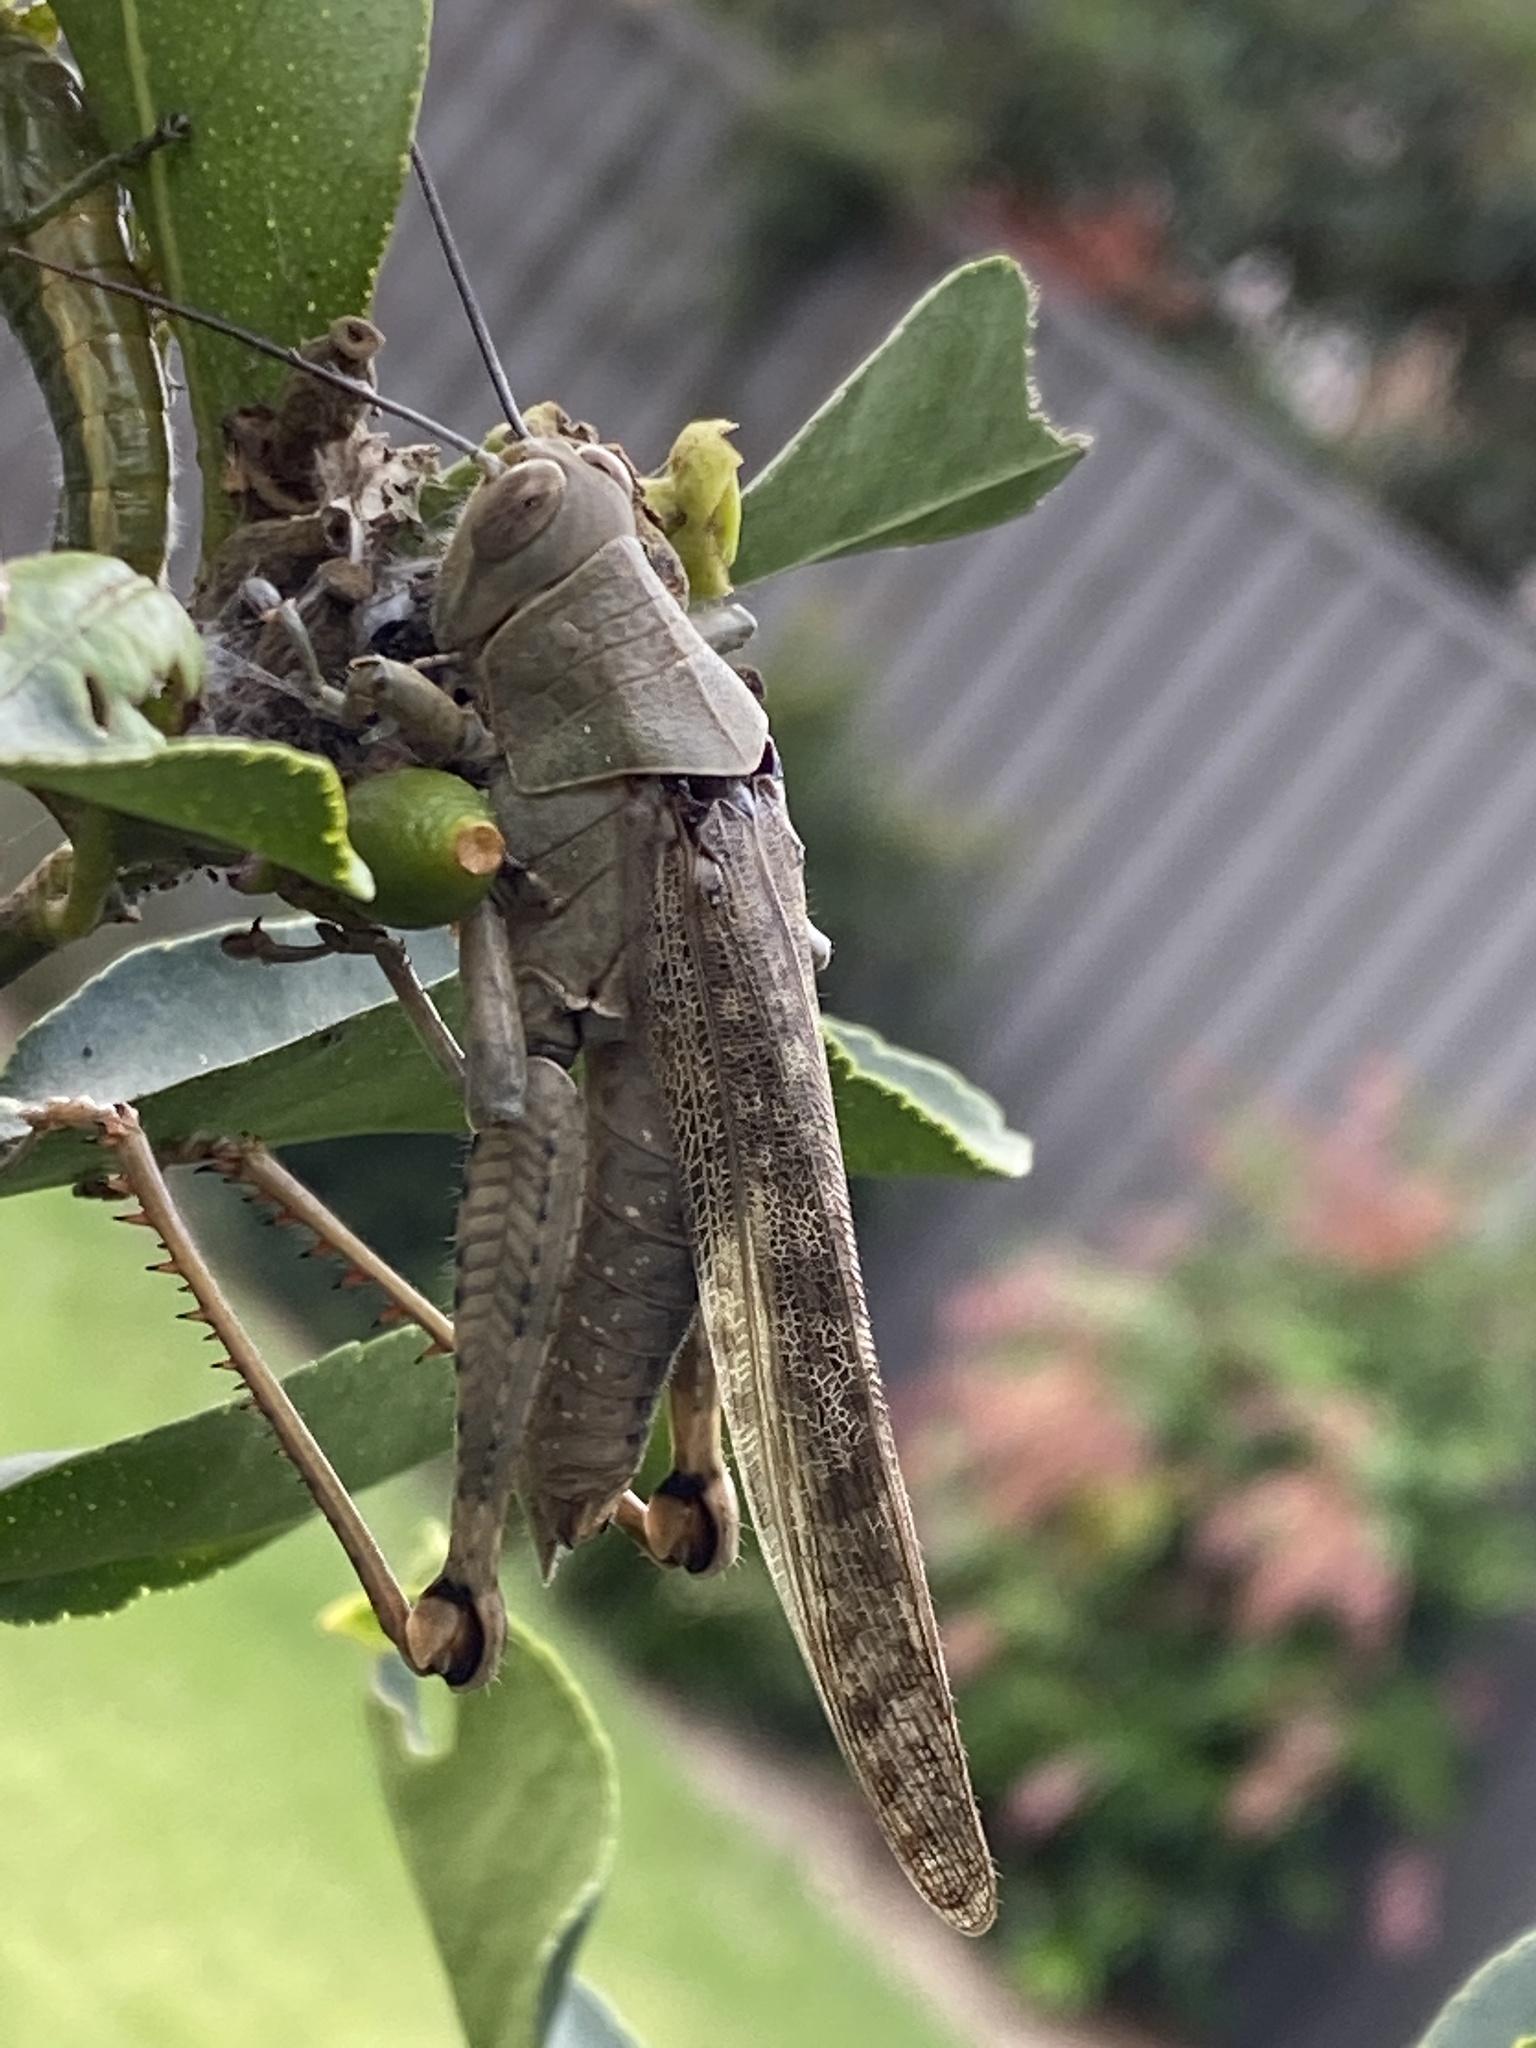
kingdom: Animalia
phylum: Arthropoda
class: Insecta
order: Orthoptera
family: Acrididae
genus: Valanga
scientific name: Valanga irregularis
